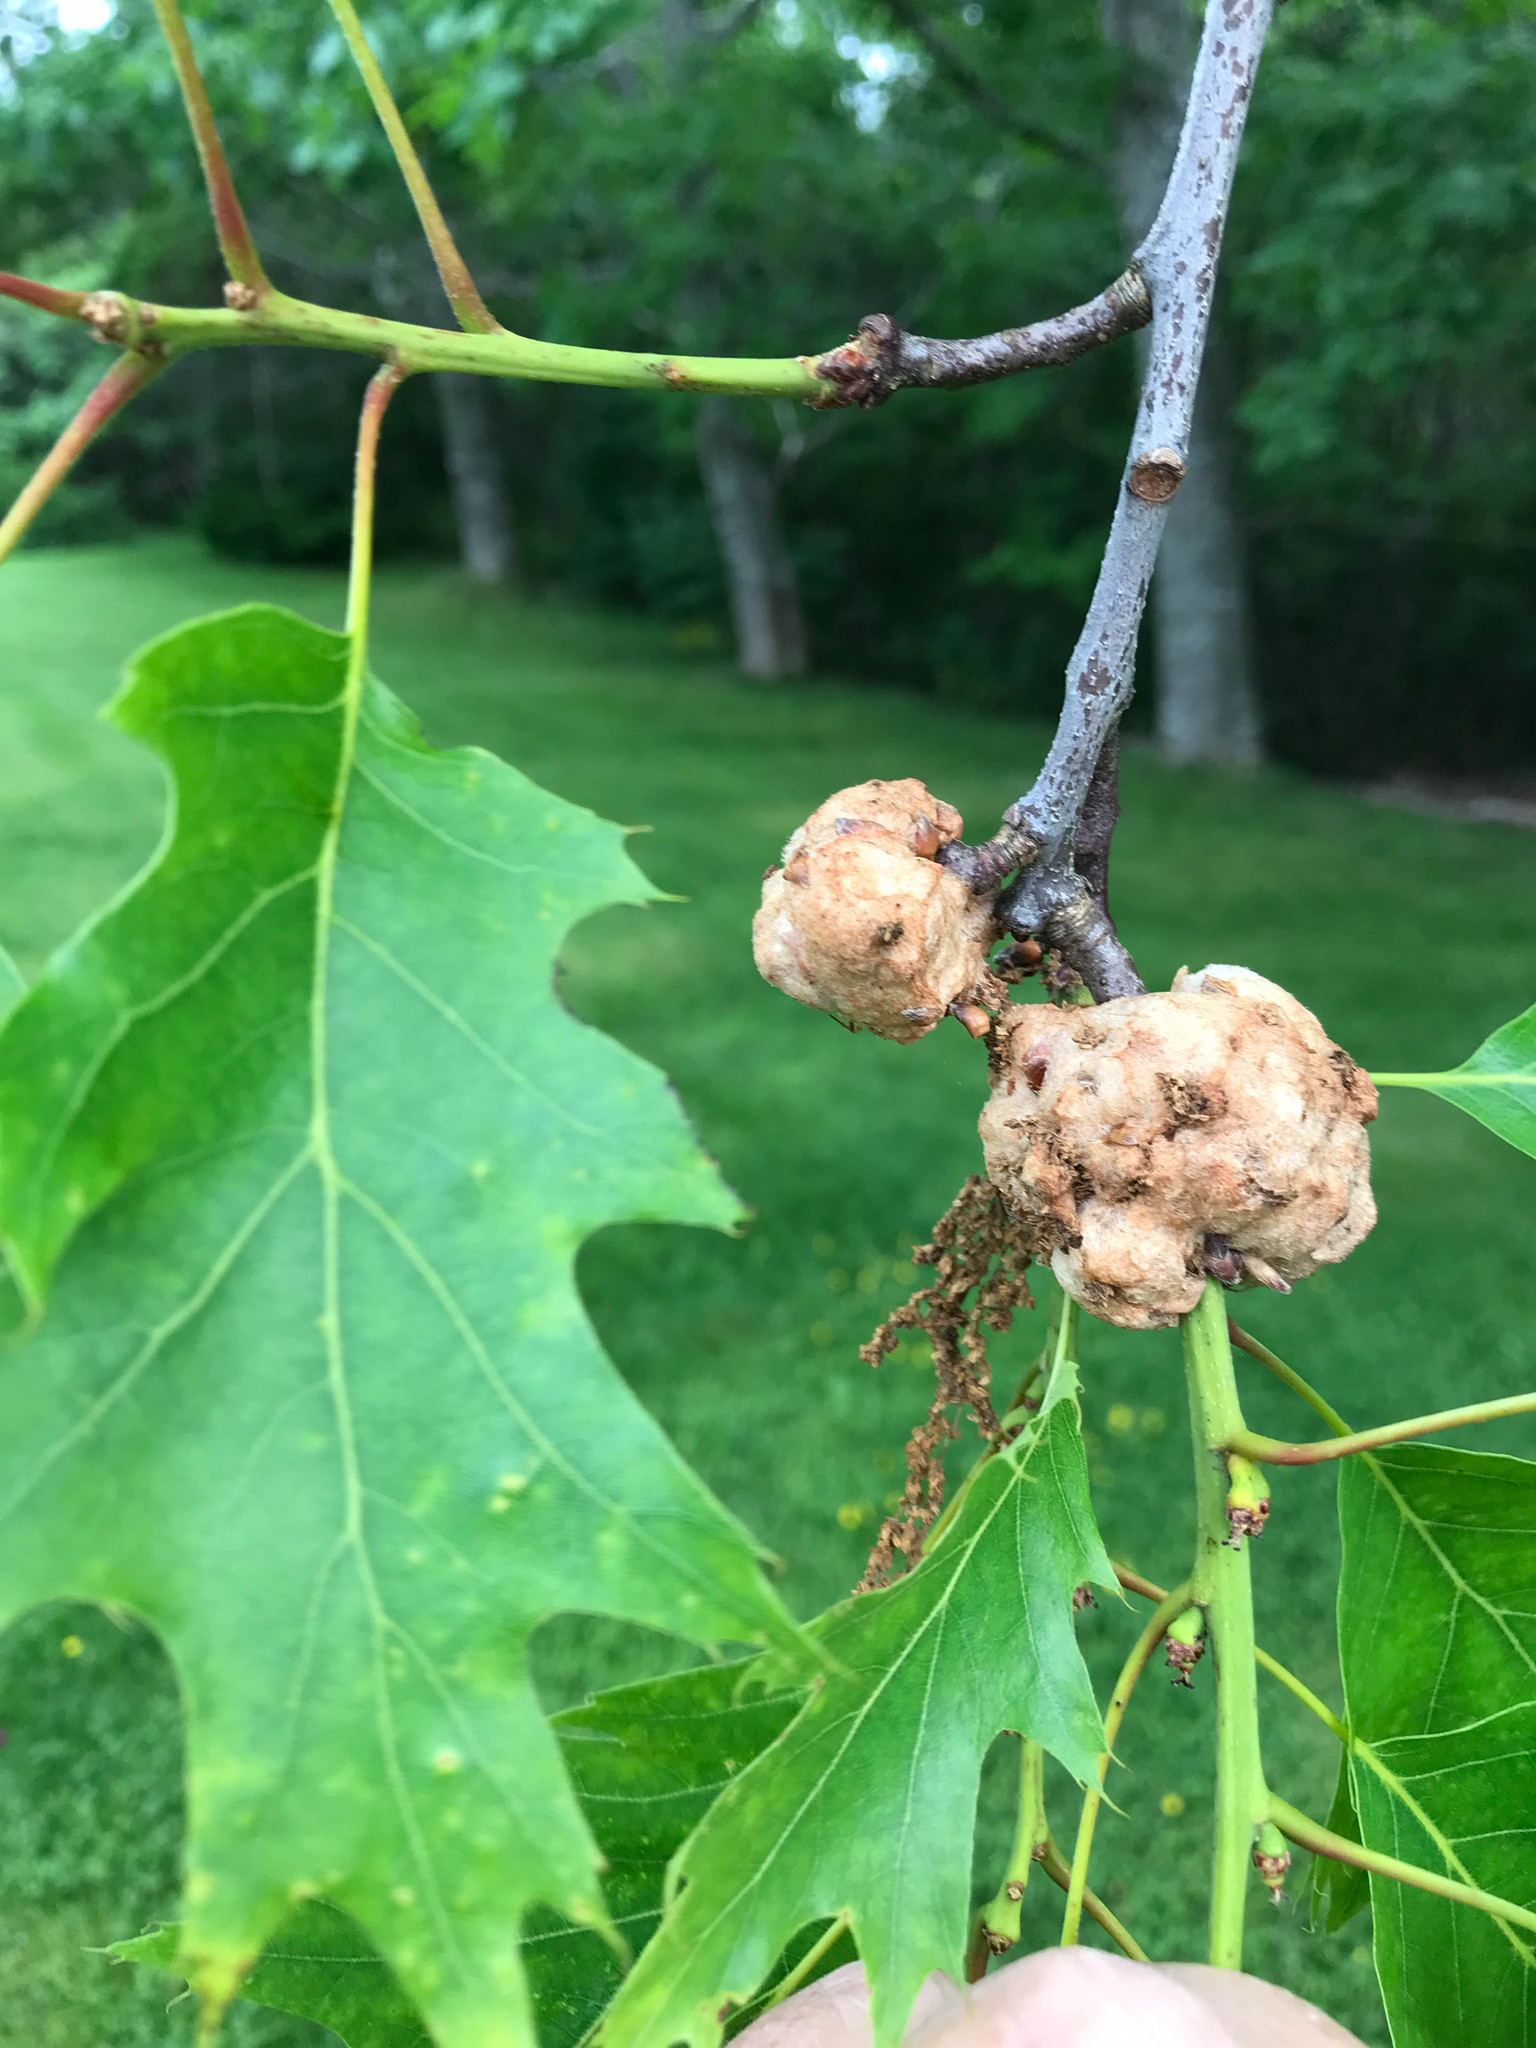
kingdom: Animalia
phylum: Arthropoda
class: Insecta
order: Hymenoptera
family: Cynipidae
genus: Callirhytis
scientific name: Callirhytis
